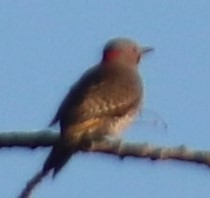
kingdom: Animalia
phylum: Chordata
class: Aves
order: Piciformes
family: Picidae
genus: Colaptes
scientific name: Colaptes auratus
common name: Northern flicker
